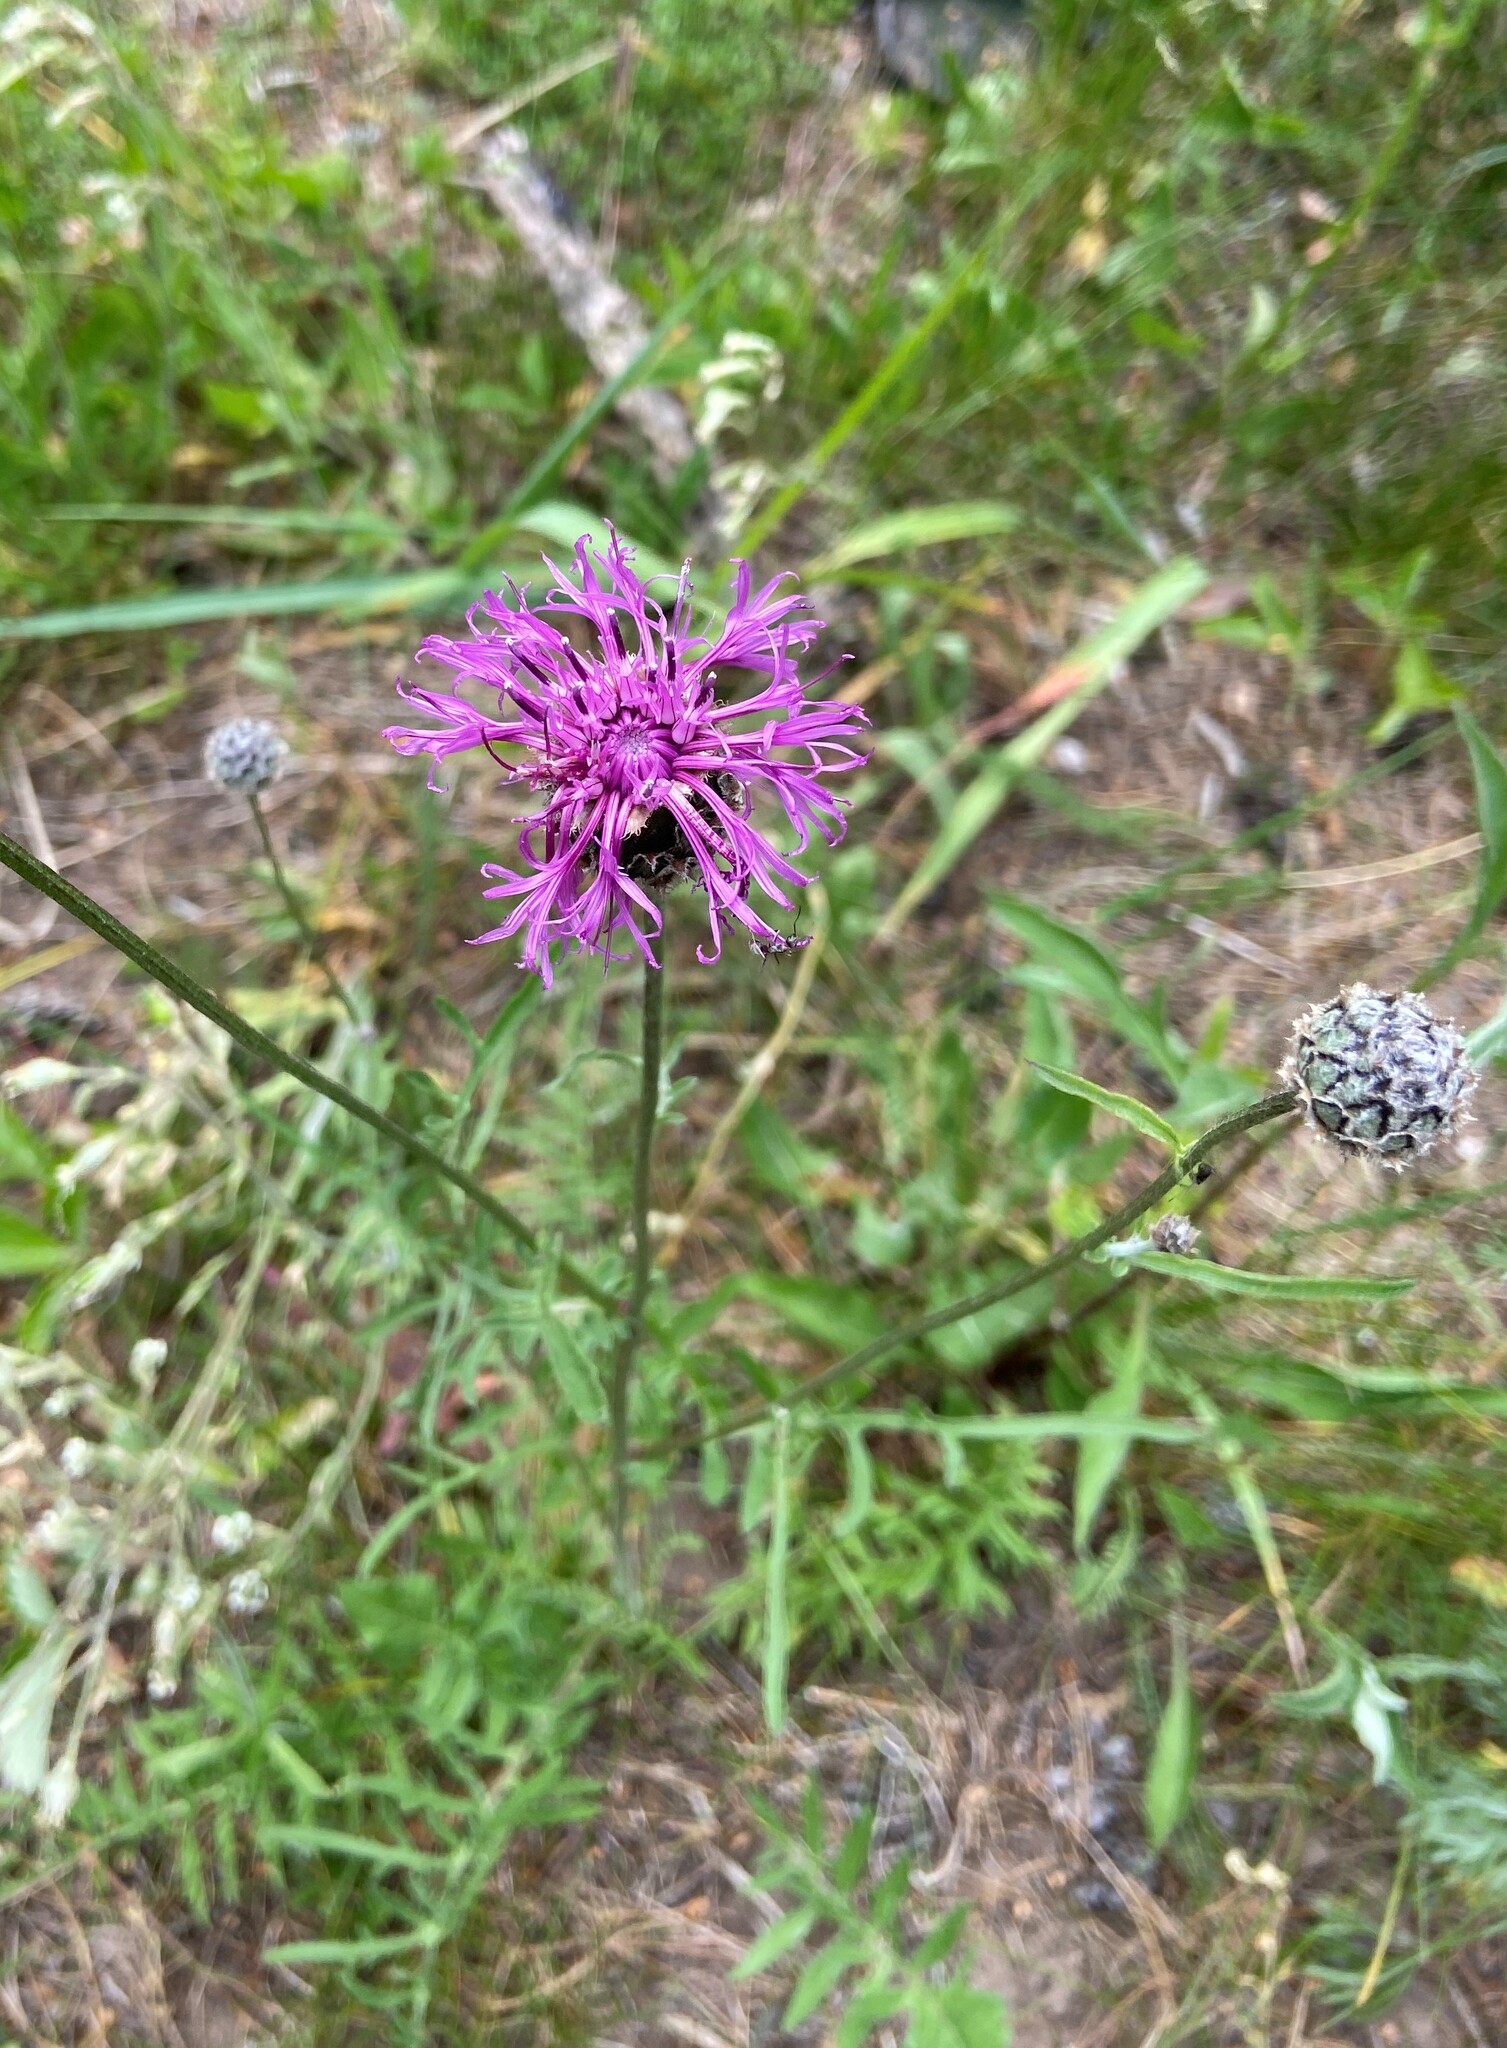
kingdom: Plantae
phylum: Tracheophyta
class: Magnoliopsida
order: Asterales
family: Asteraceae
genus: Centaurea
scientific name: Centaurea scabiosa
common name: Greater knapweed
